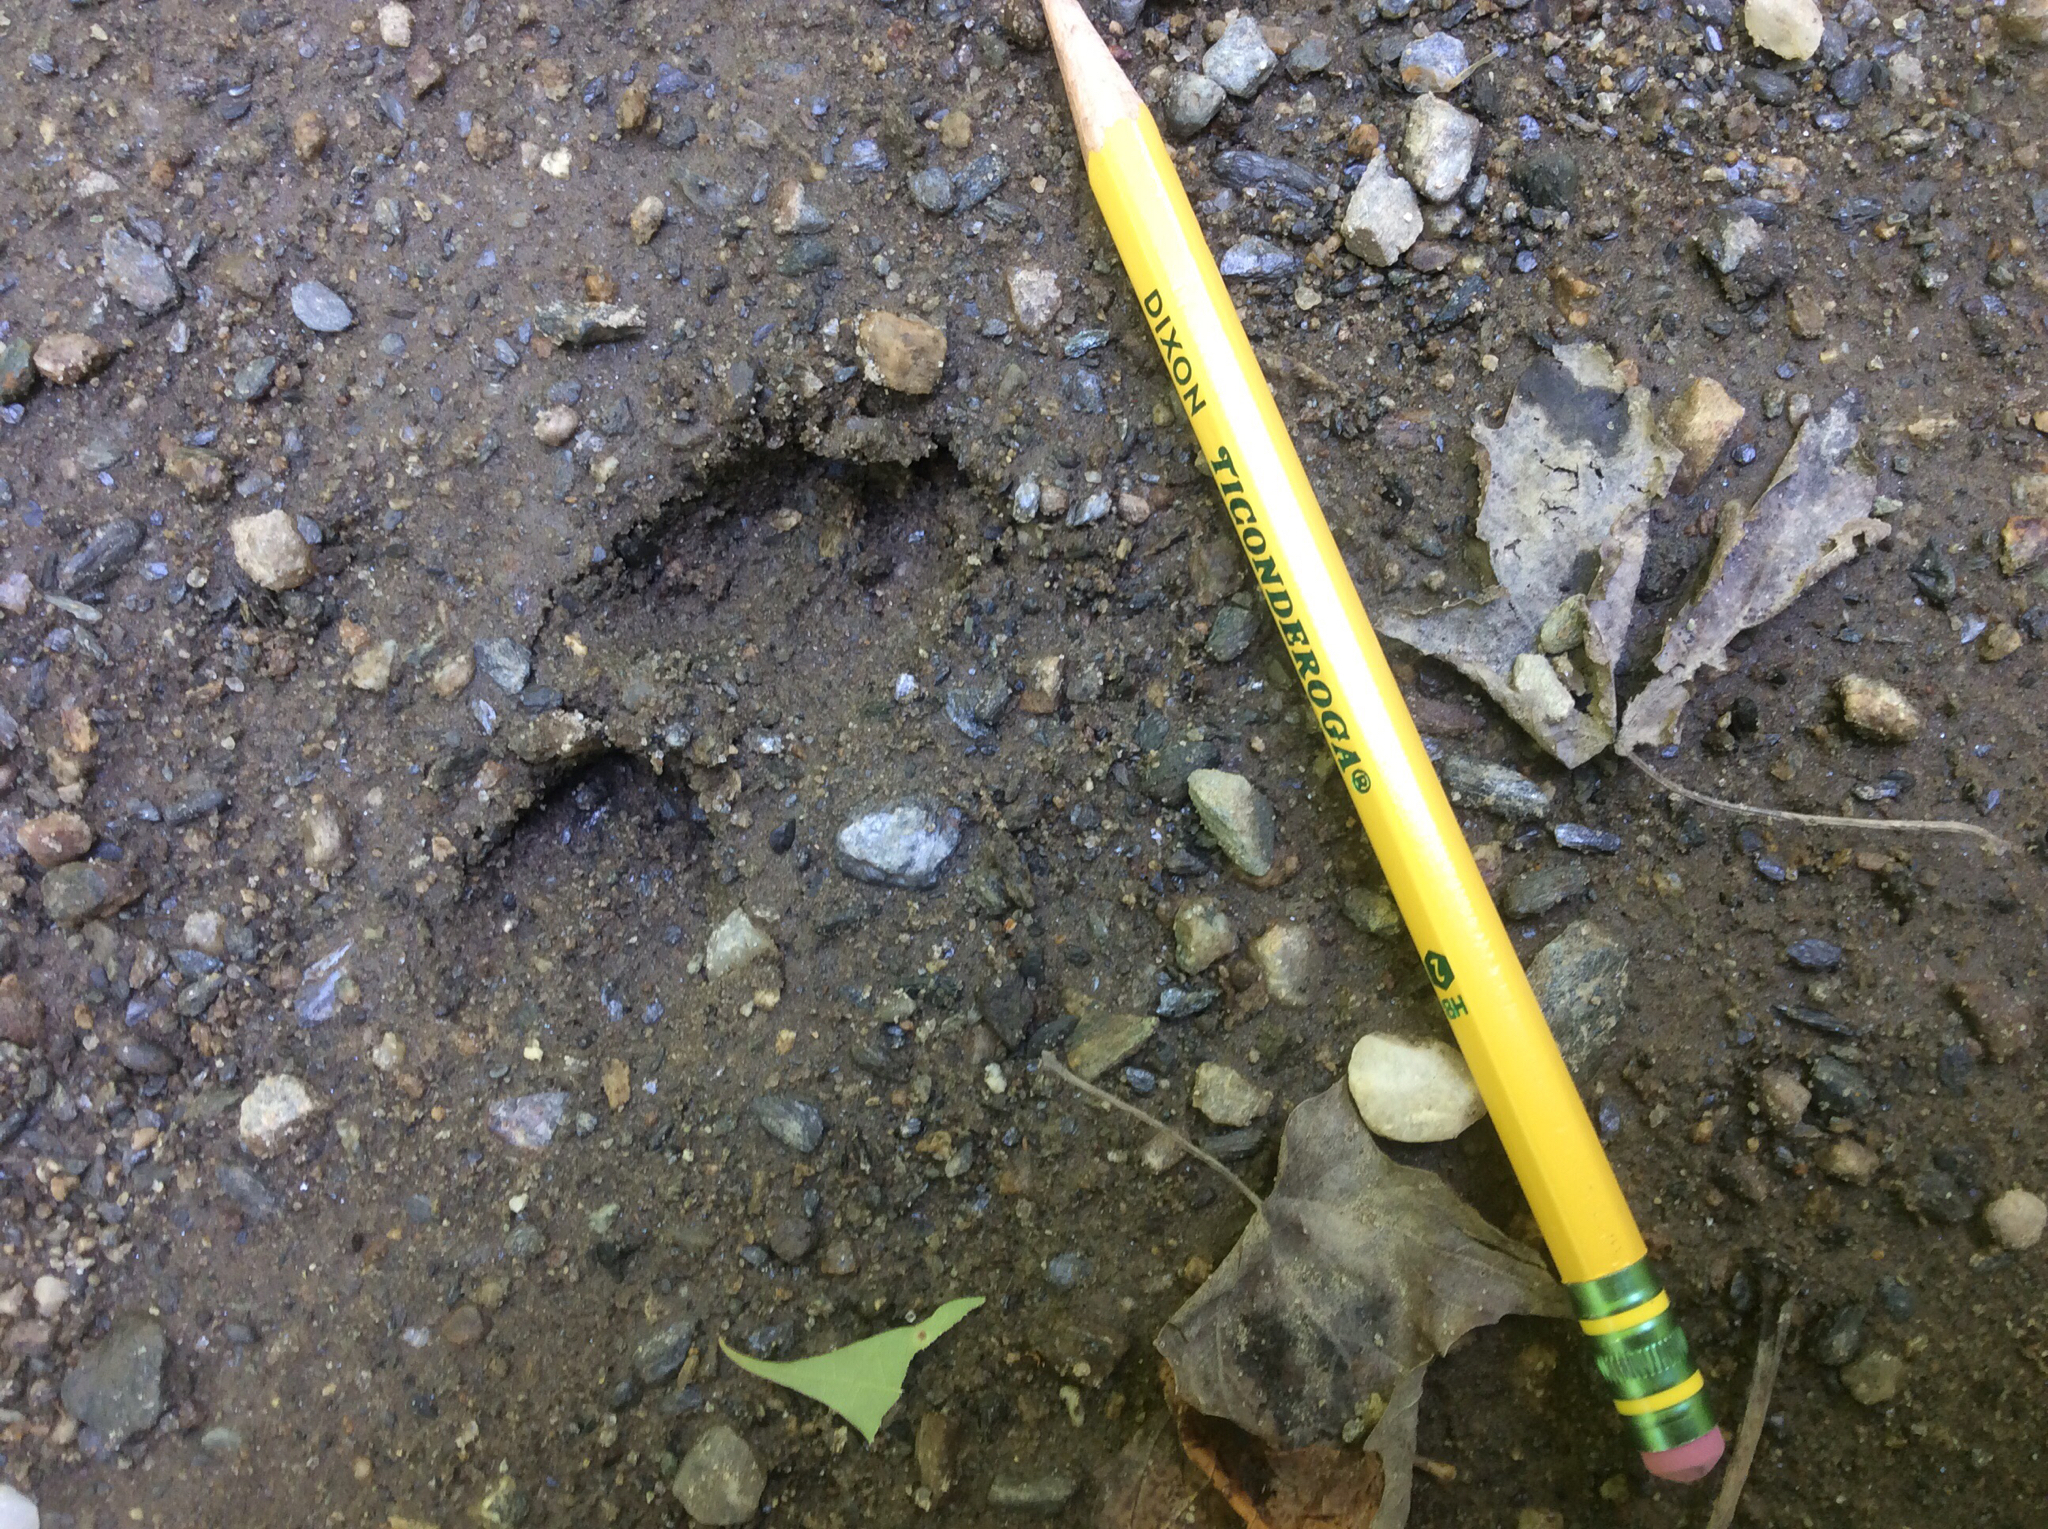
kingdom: Animalia
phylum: Chordata
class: Mammalia
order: Artiodactyla
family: Cervidae
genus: Odocoileus
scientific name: Odocoileus virginianus
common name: White-tailed deer
